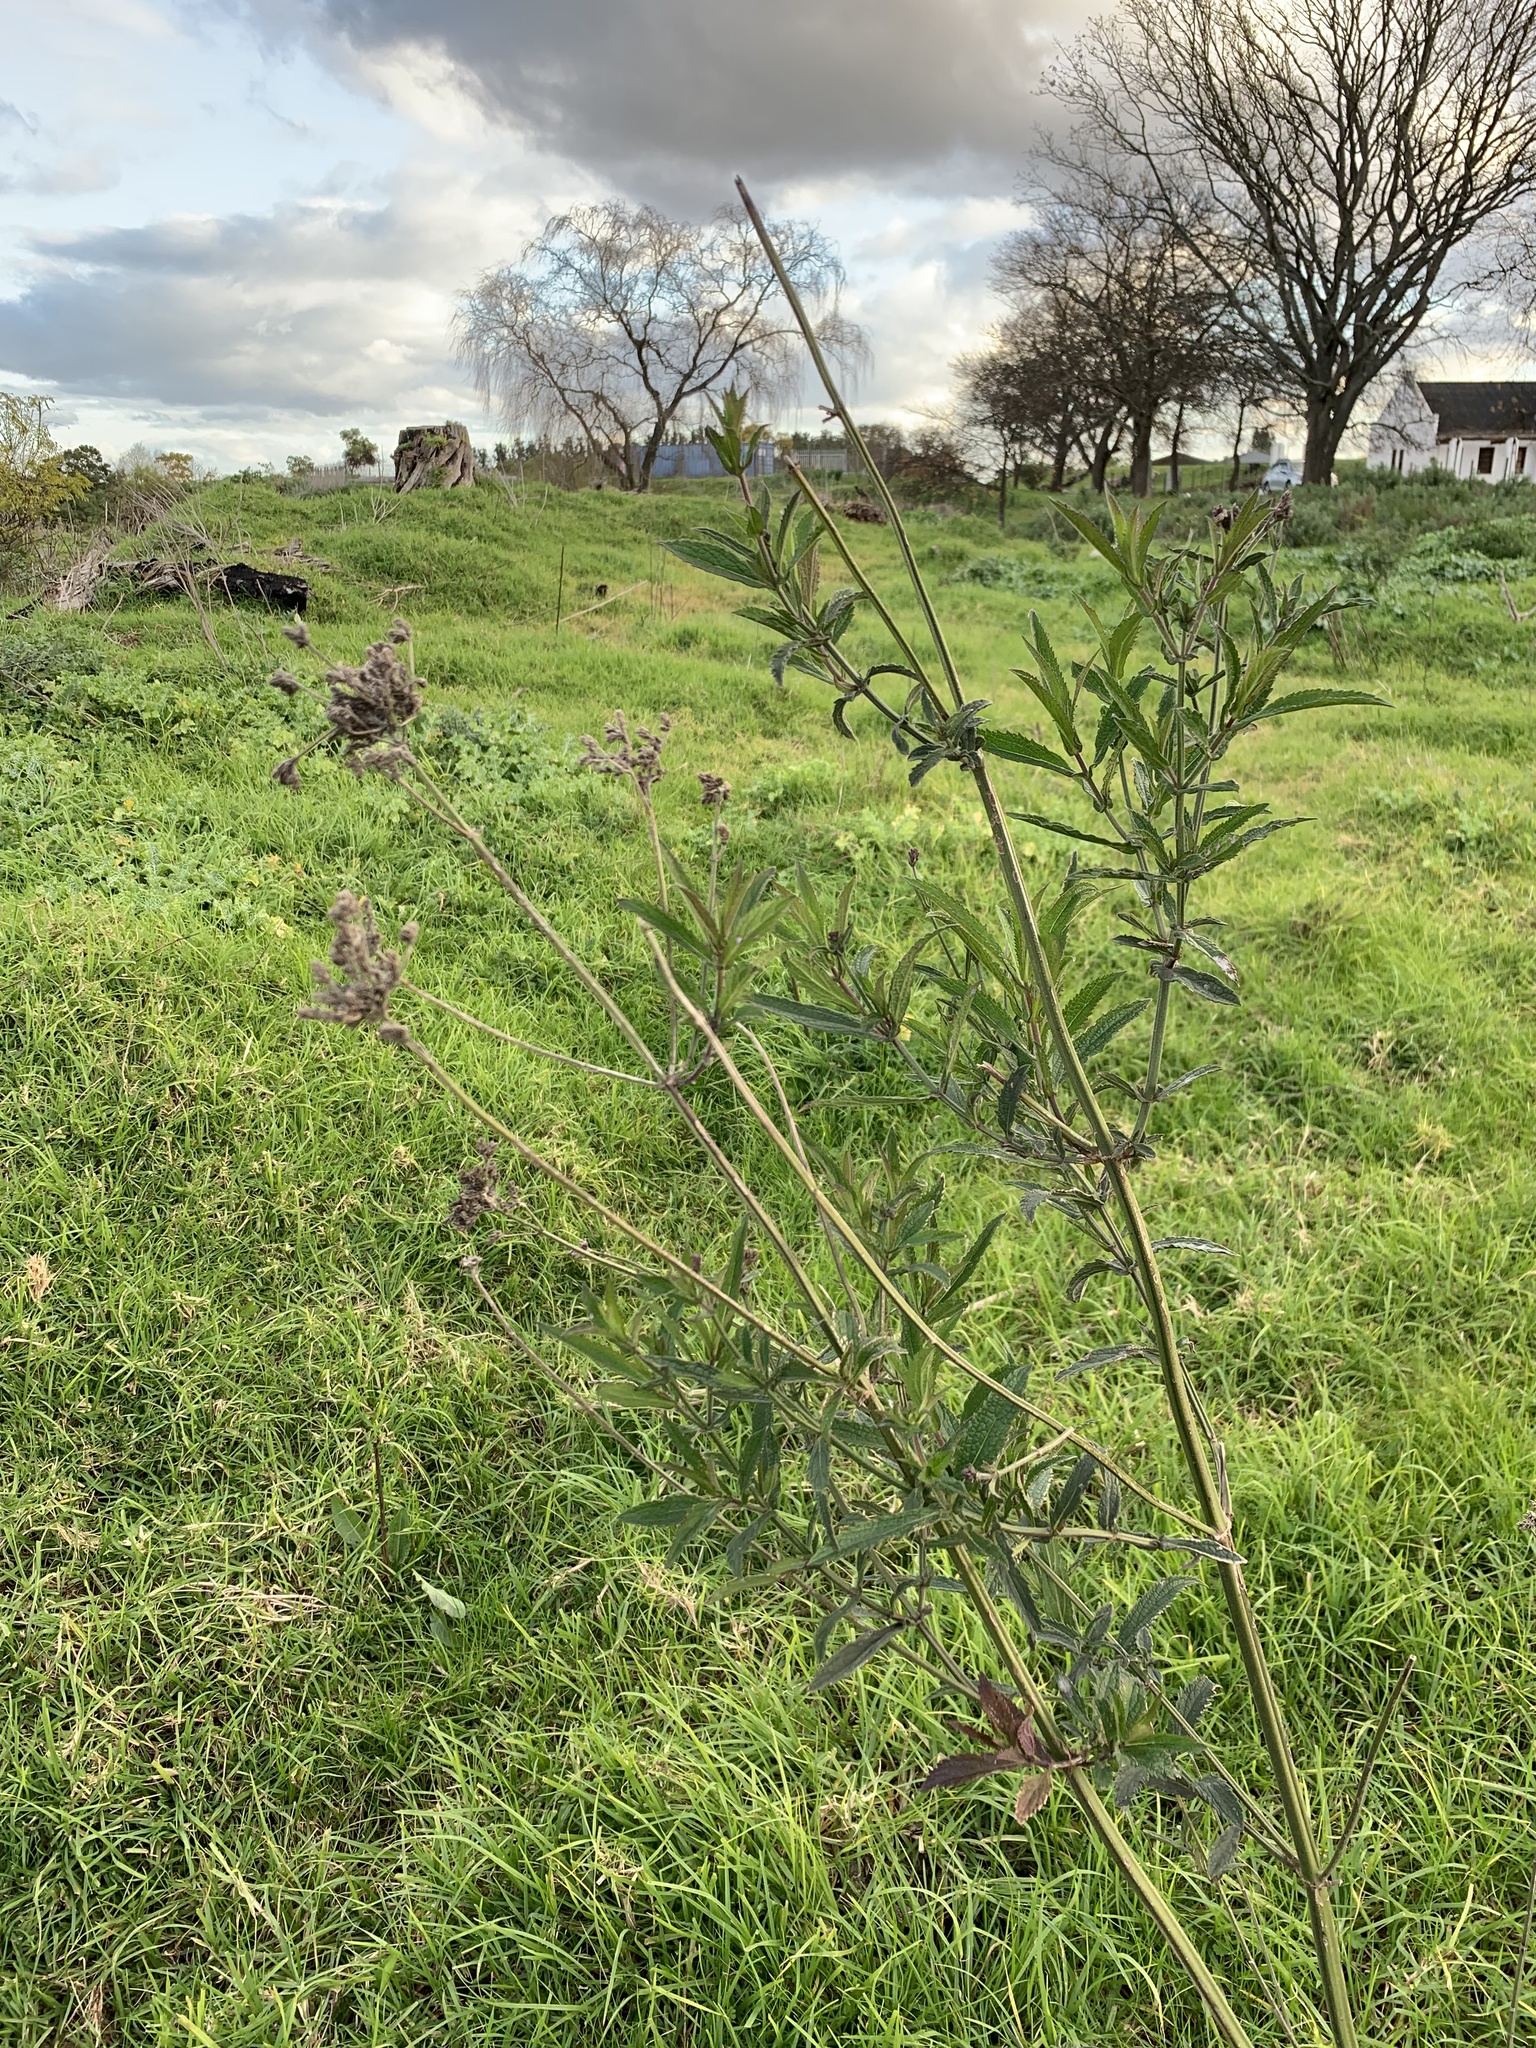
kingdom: Plantae
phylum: Tracheophyta
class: Magnoliopsida
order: Lamiales
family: Verbenaceae
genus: Verbena
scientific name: Verbena bonariensis
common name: Purpletop vervain
